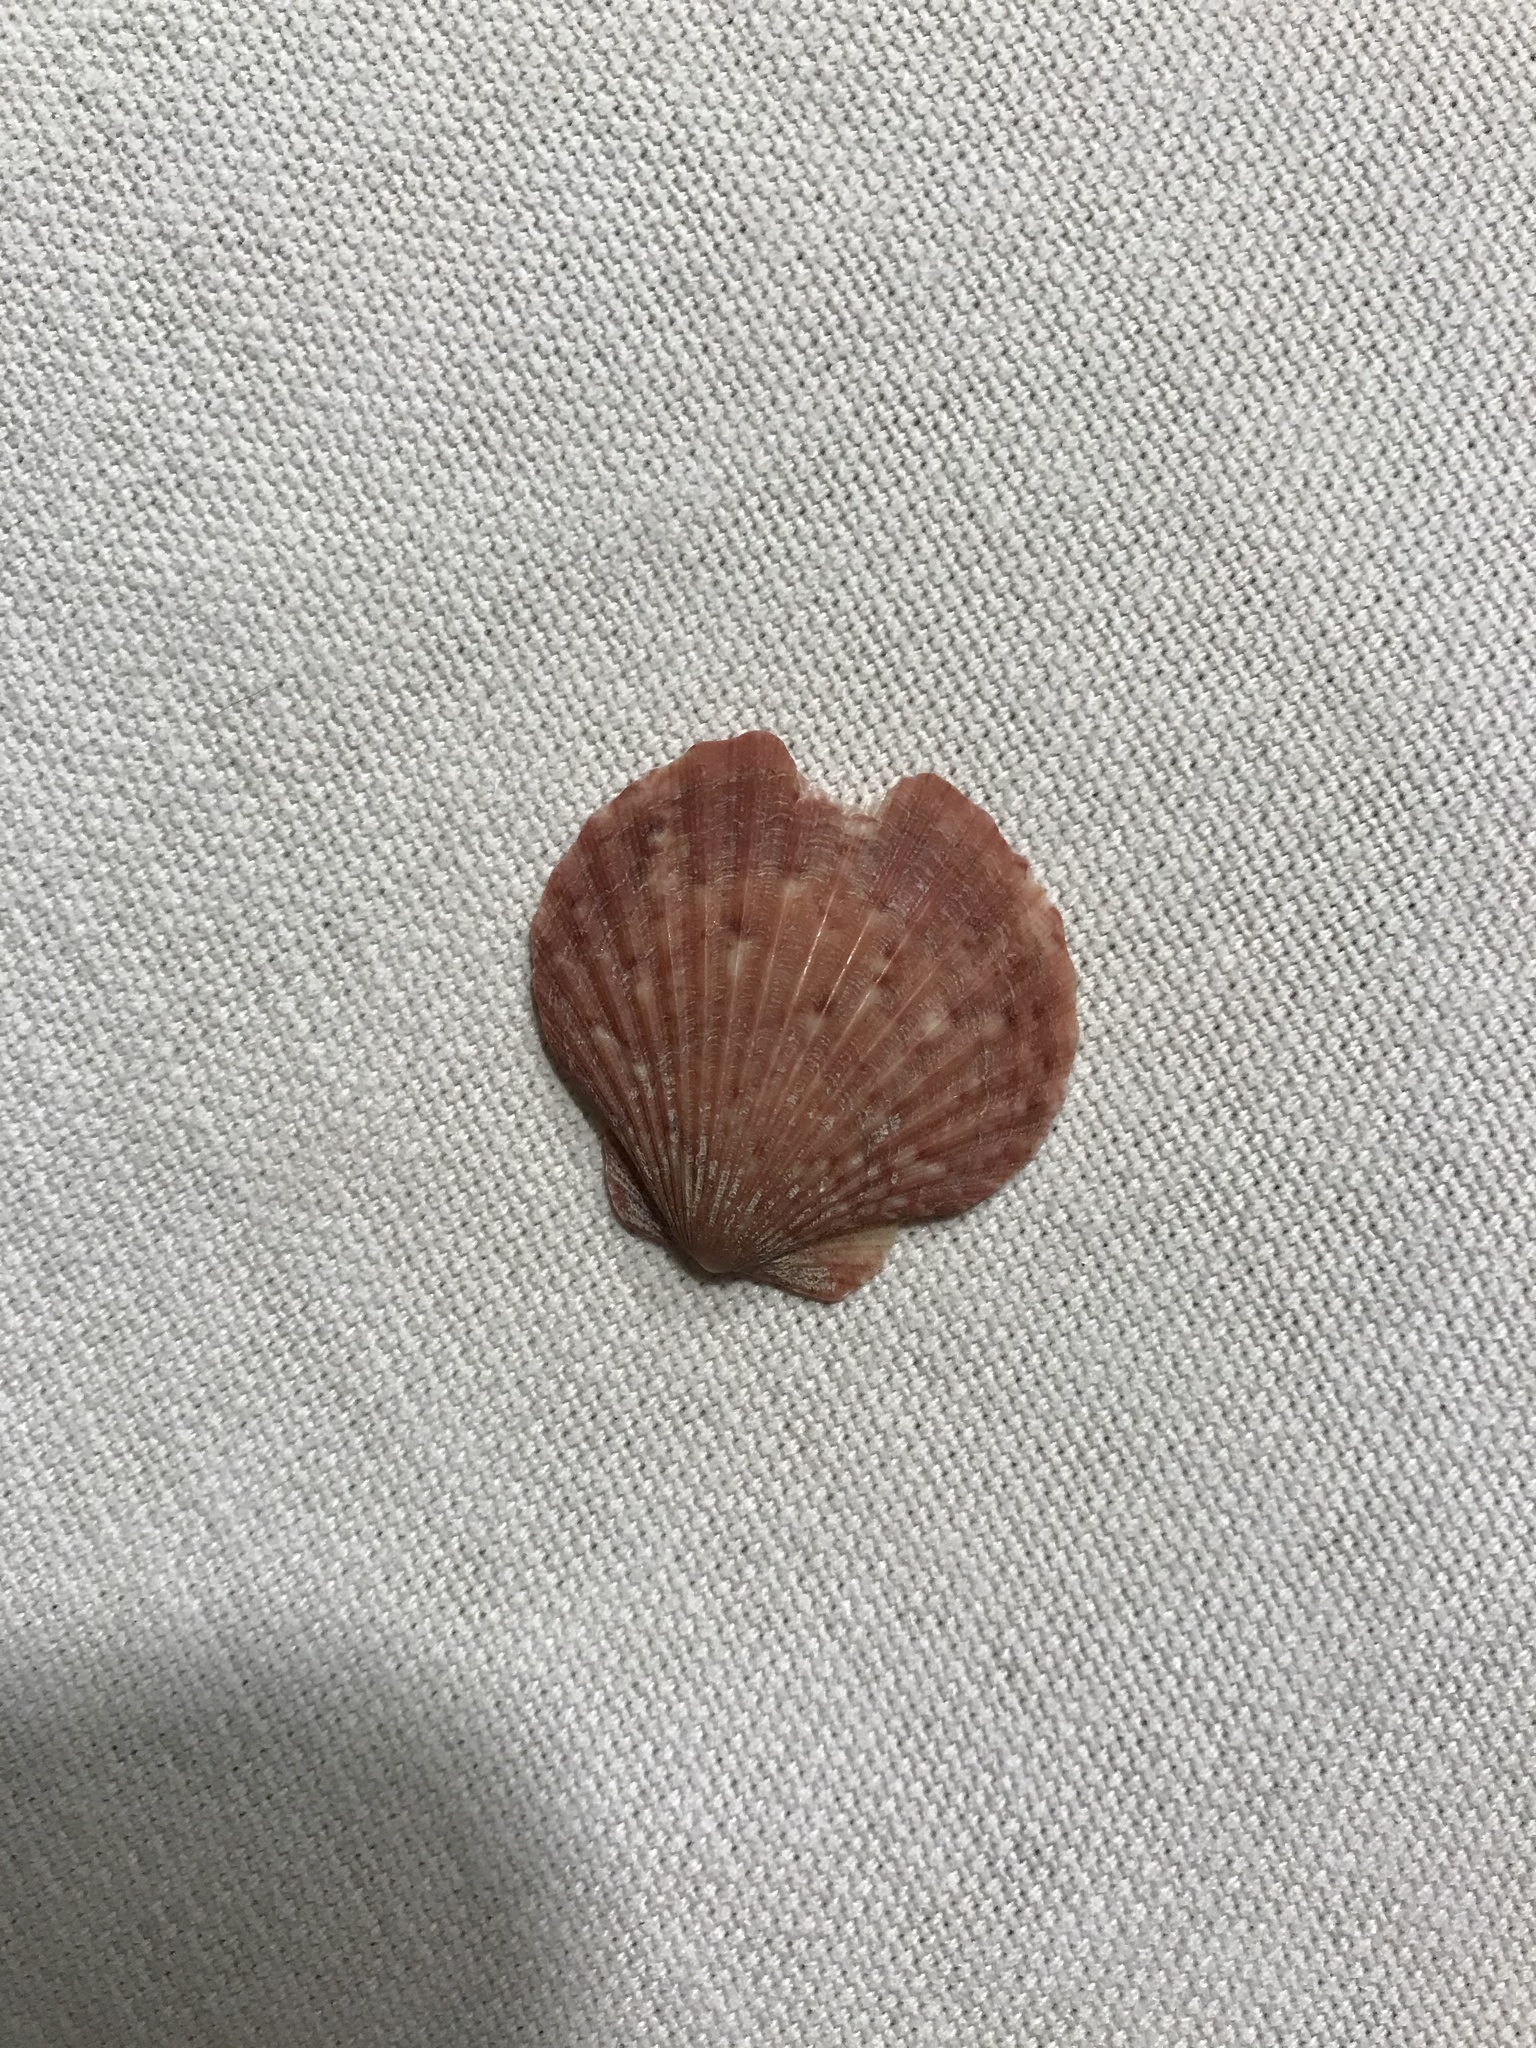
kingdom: Animalia
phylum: Mollusca
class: Bivalvia
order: Pectinida
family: Pectinidae
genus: Aequipecten
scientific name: Aequipecten opercularis
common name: Queen scallop
